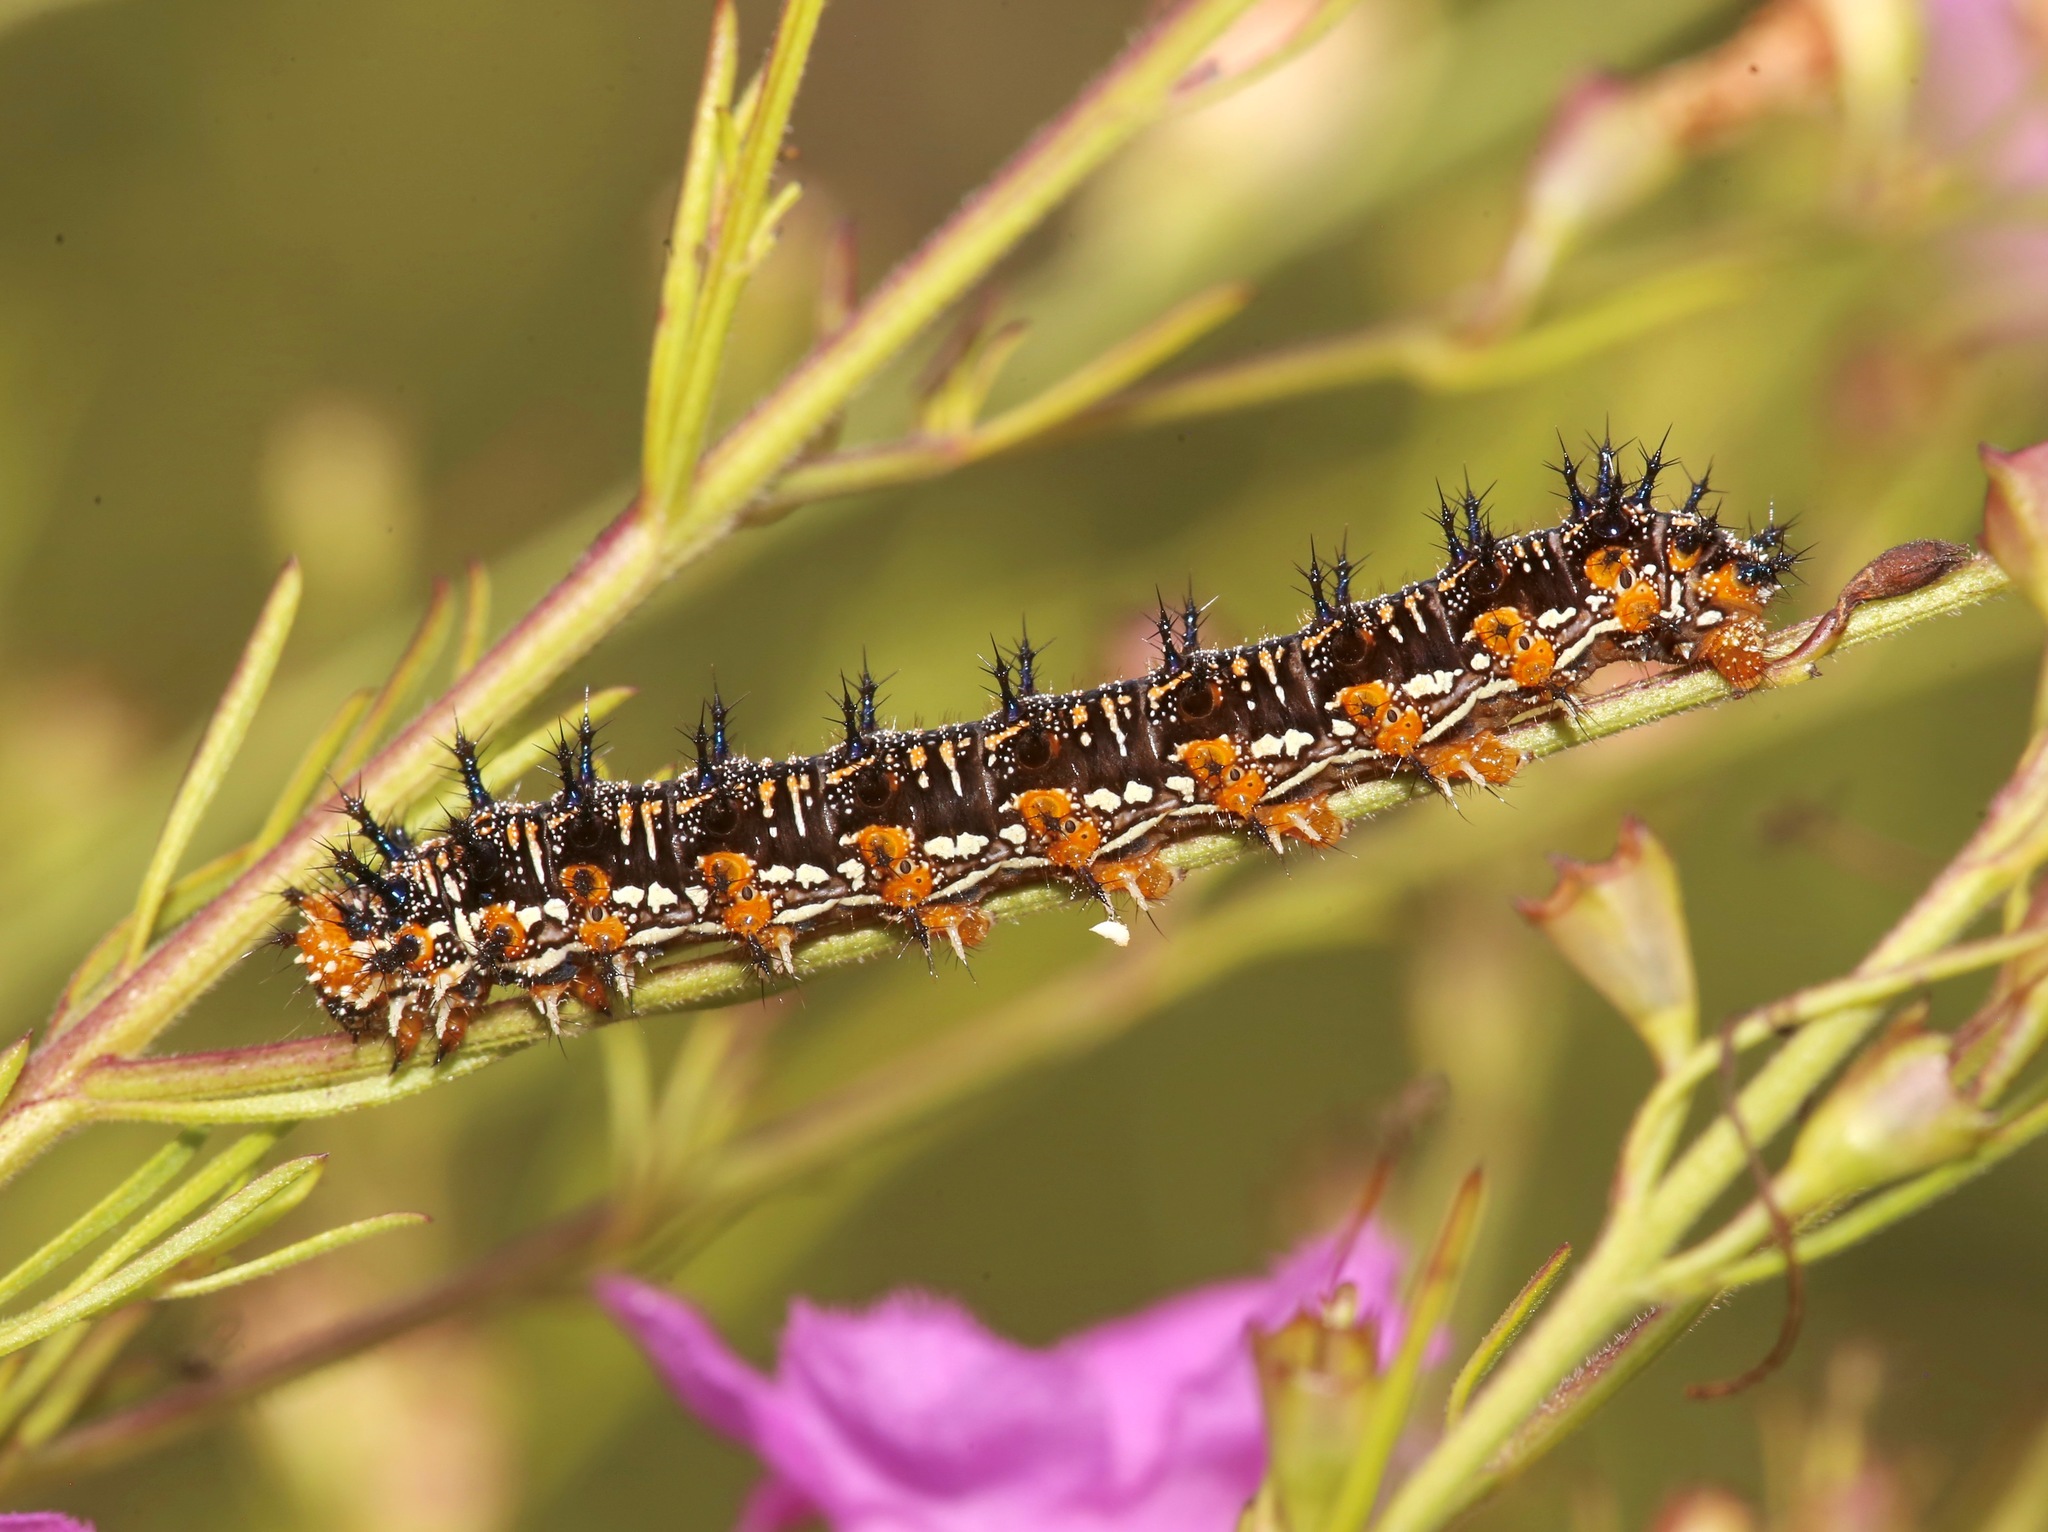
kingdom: Animalia
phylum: Arthropoda
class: Insecta
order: Lepidoptera
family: Nymphalidae
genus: Junonia
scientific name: Junonia coenia
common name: Common buckeye
